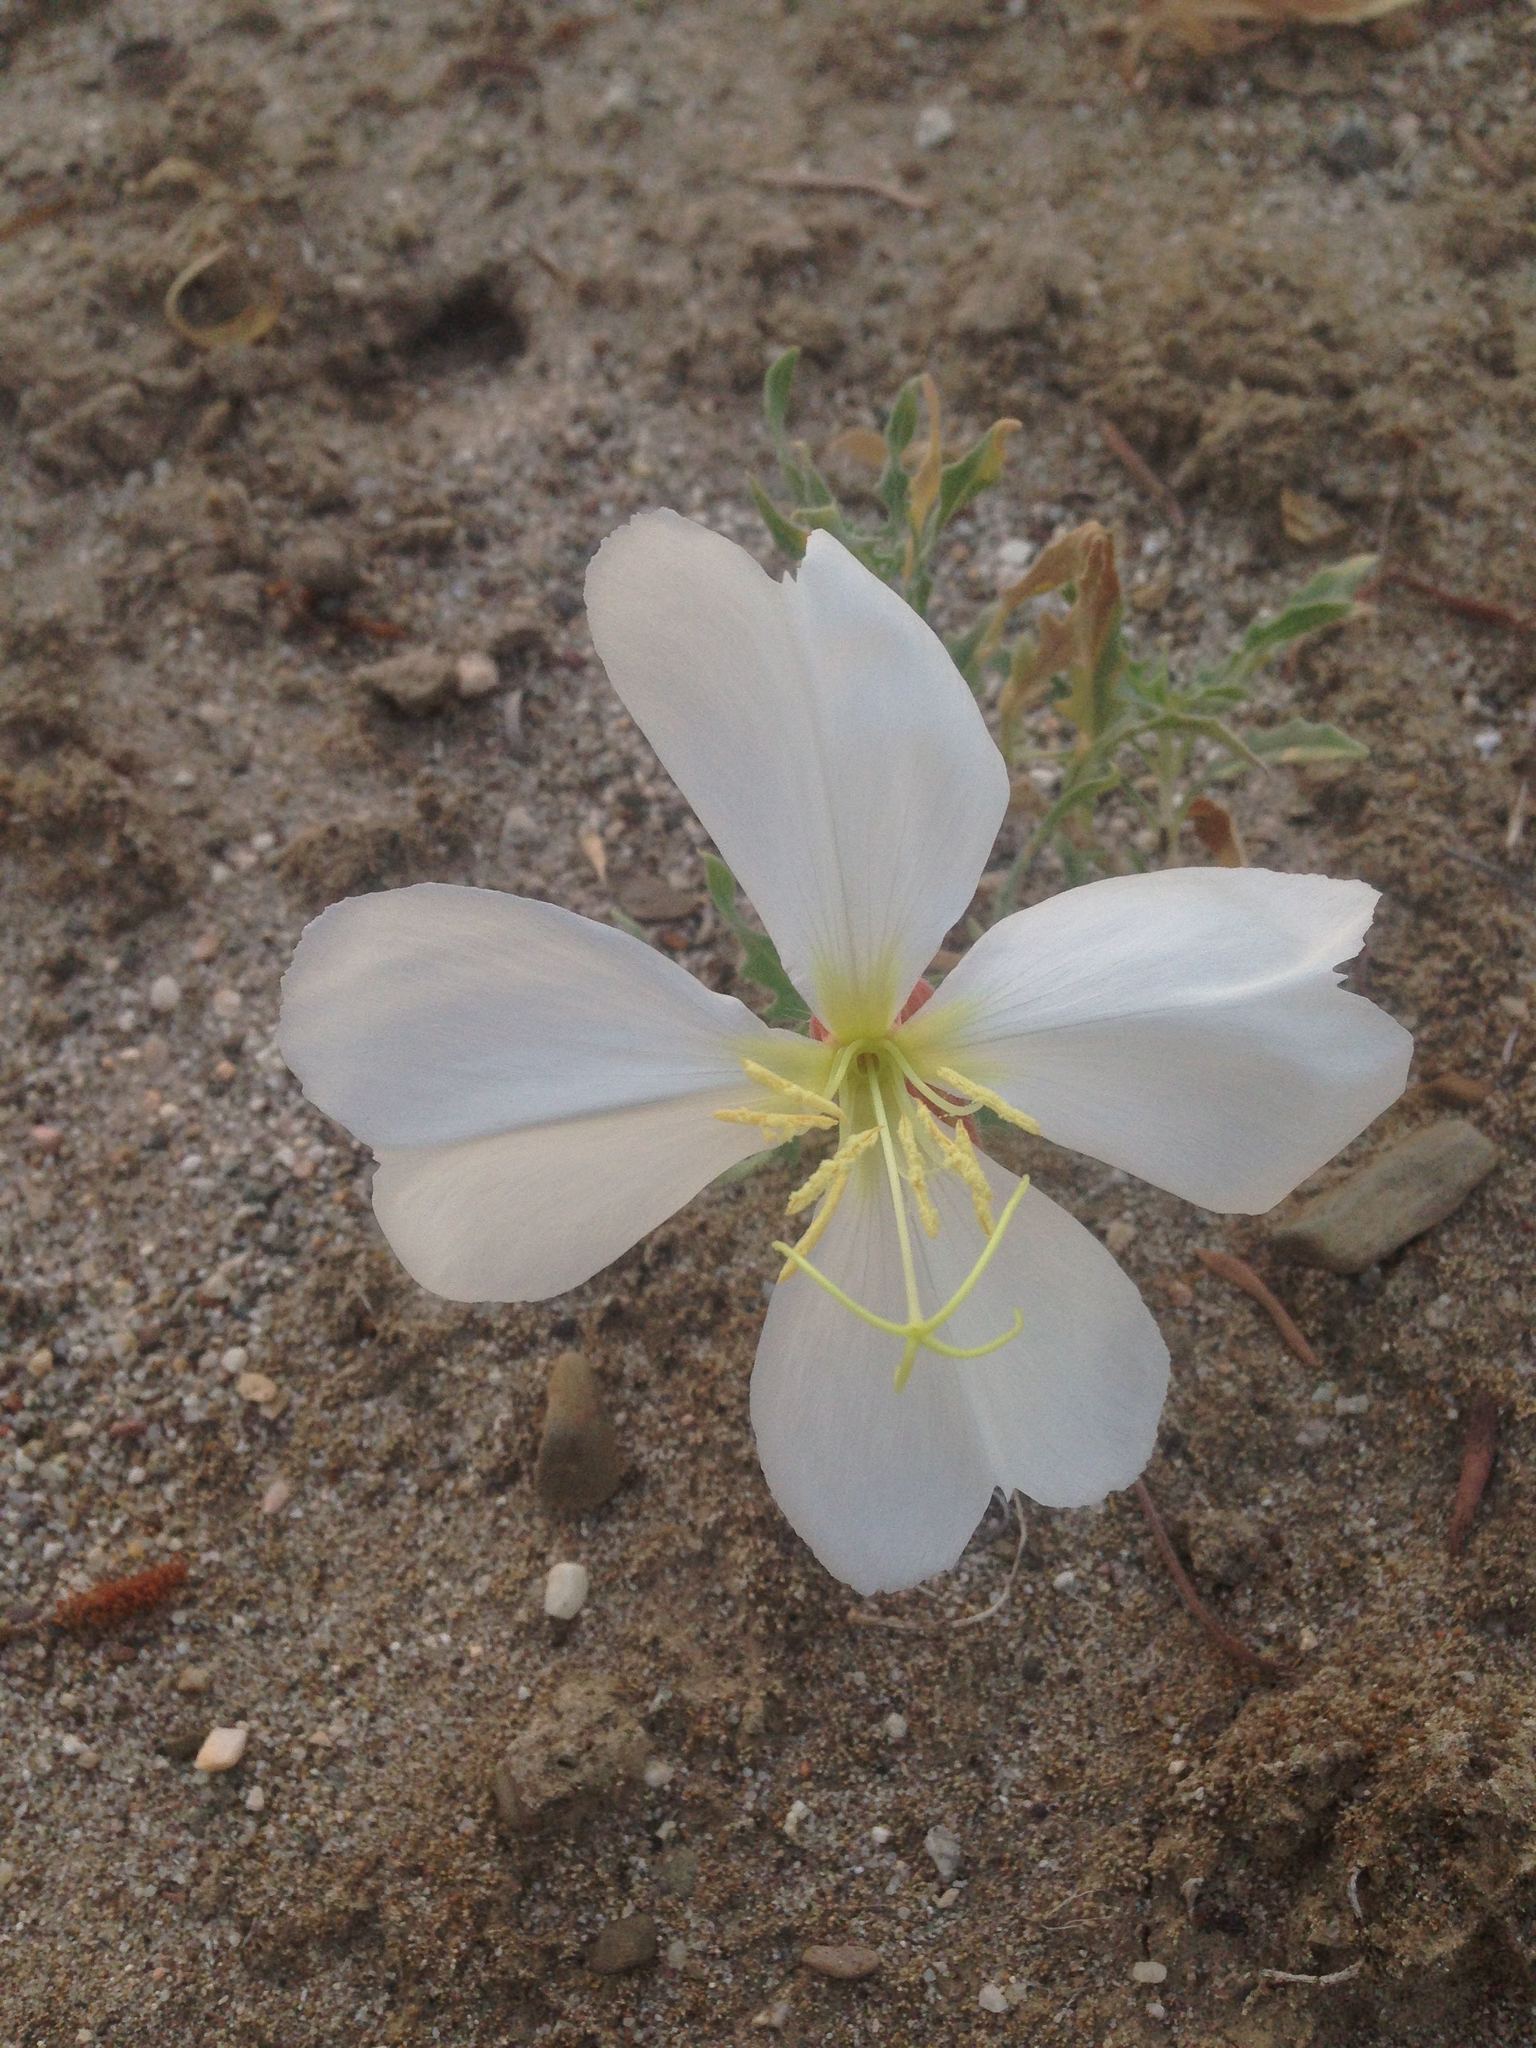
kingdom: Plantae
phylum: Tracheophyta
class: Magnoliopsida
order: Myrtales
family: Onagraceae
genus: Oenothera
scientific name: Oenothera californica
